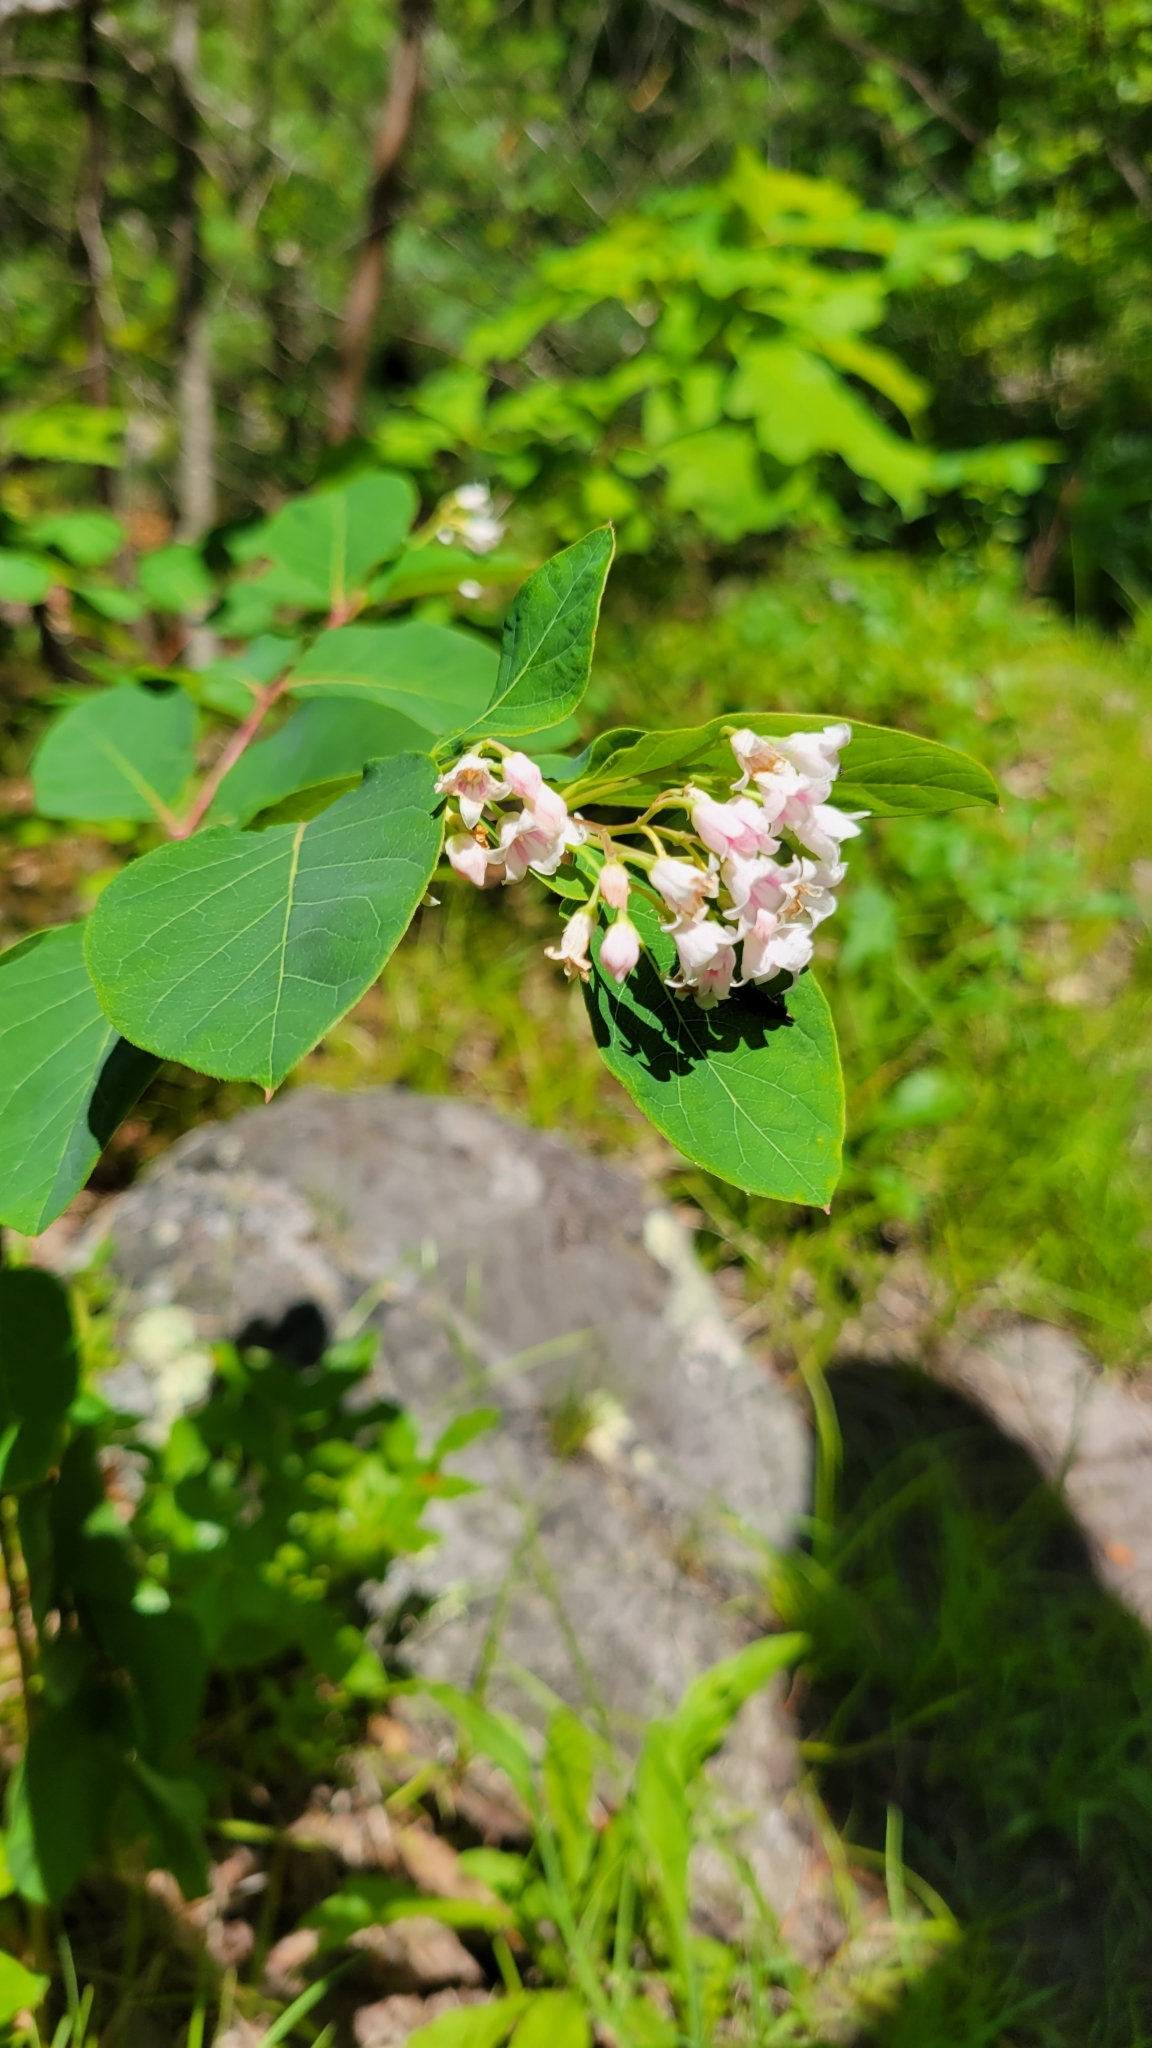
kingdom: Plantae
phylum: Tracheophyta
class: Magnoliopsida
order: Gentianales
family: Apocynaceae
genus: Apocynum
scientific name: Apocynum androsaemifolium
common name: Spreading dogbane
